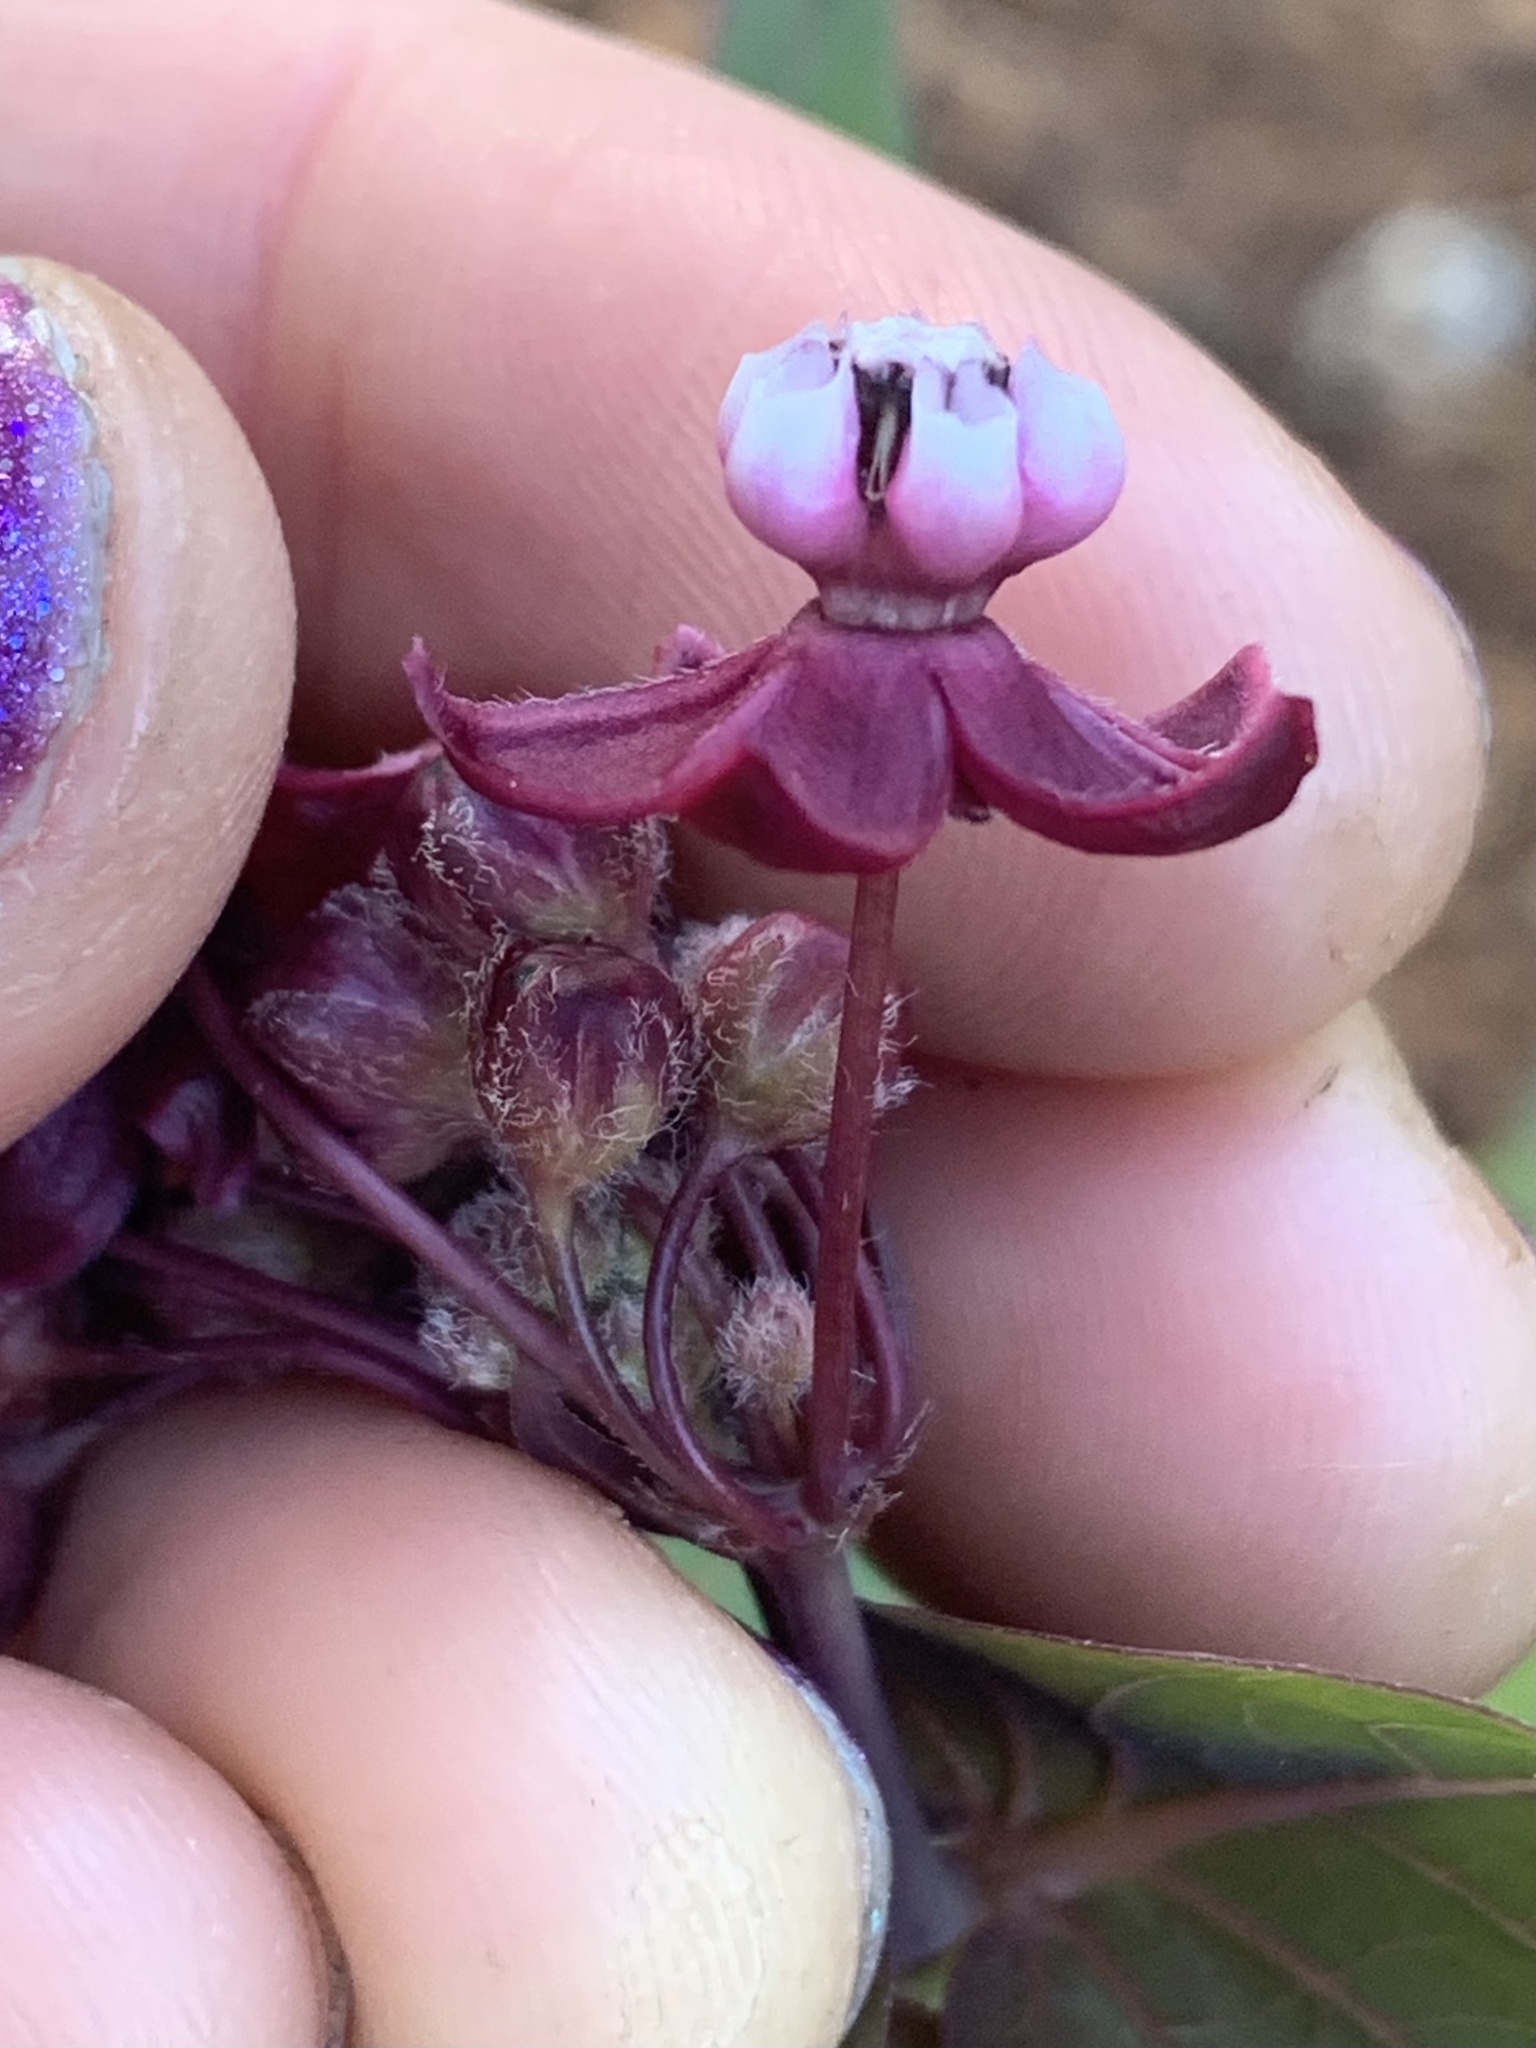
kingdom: Plantae
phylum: Tracheophyta
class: Magnoliopsida
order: Gentianales
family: Apocynaceae
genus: Asclepias
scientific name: Asclepias cordifolia
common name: Purple milkweed
